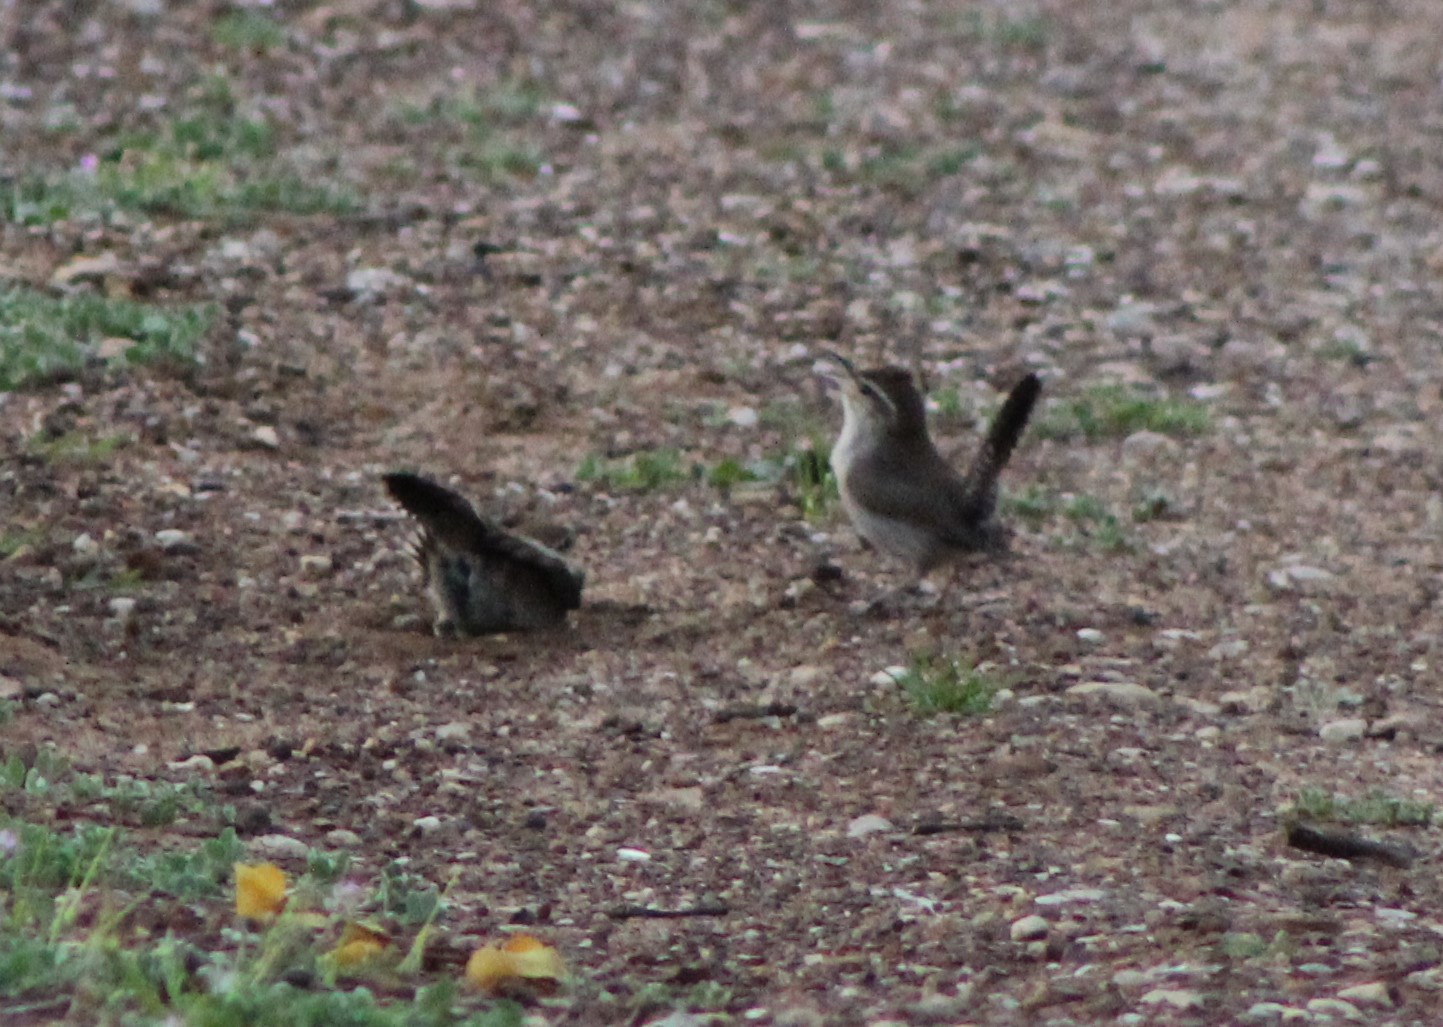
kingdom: Animalia
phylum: Chordata
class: Aves
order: Passeriformes
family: Troglodytidae
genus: Thryomanes
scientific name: Thryomanes bewickii
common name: Bewick's wren
